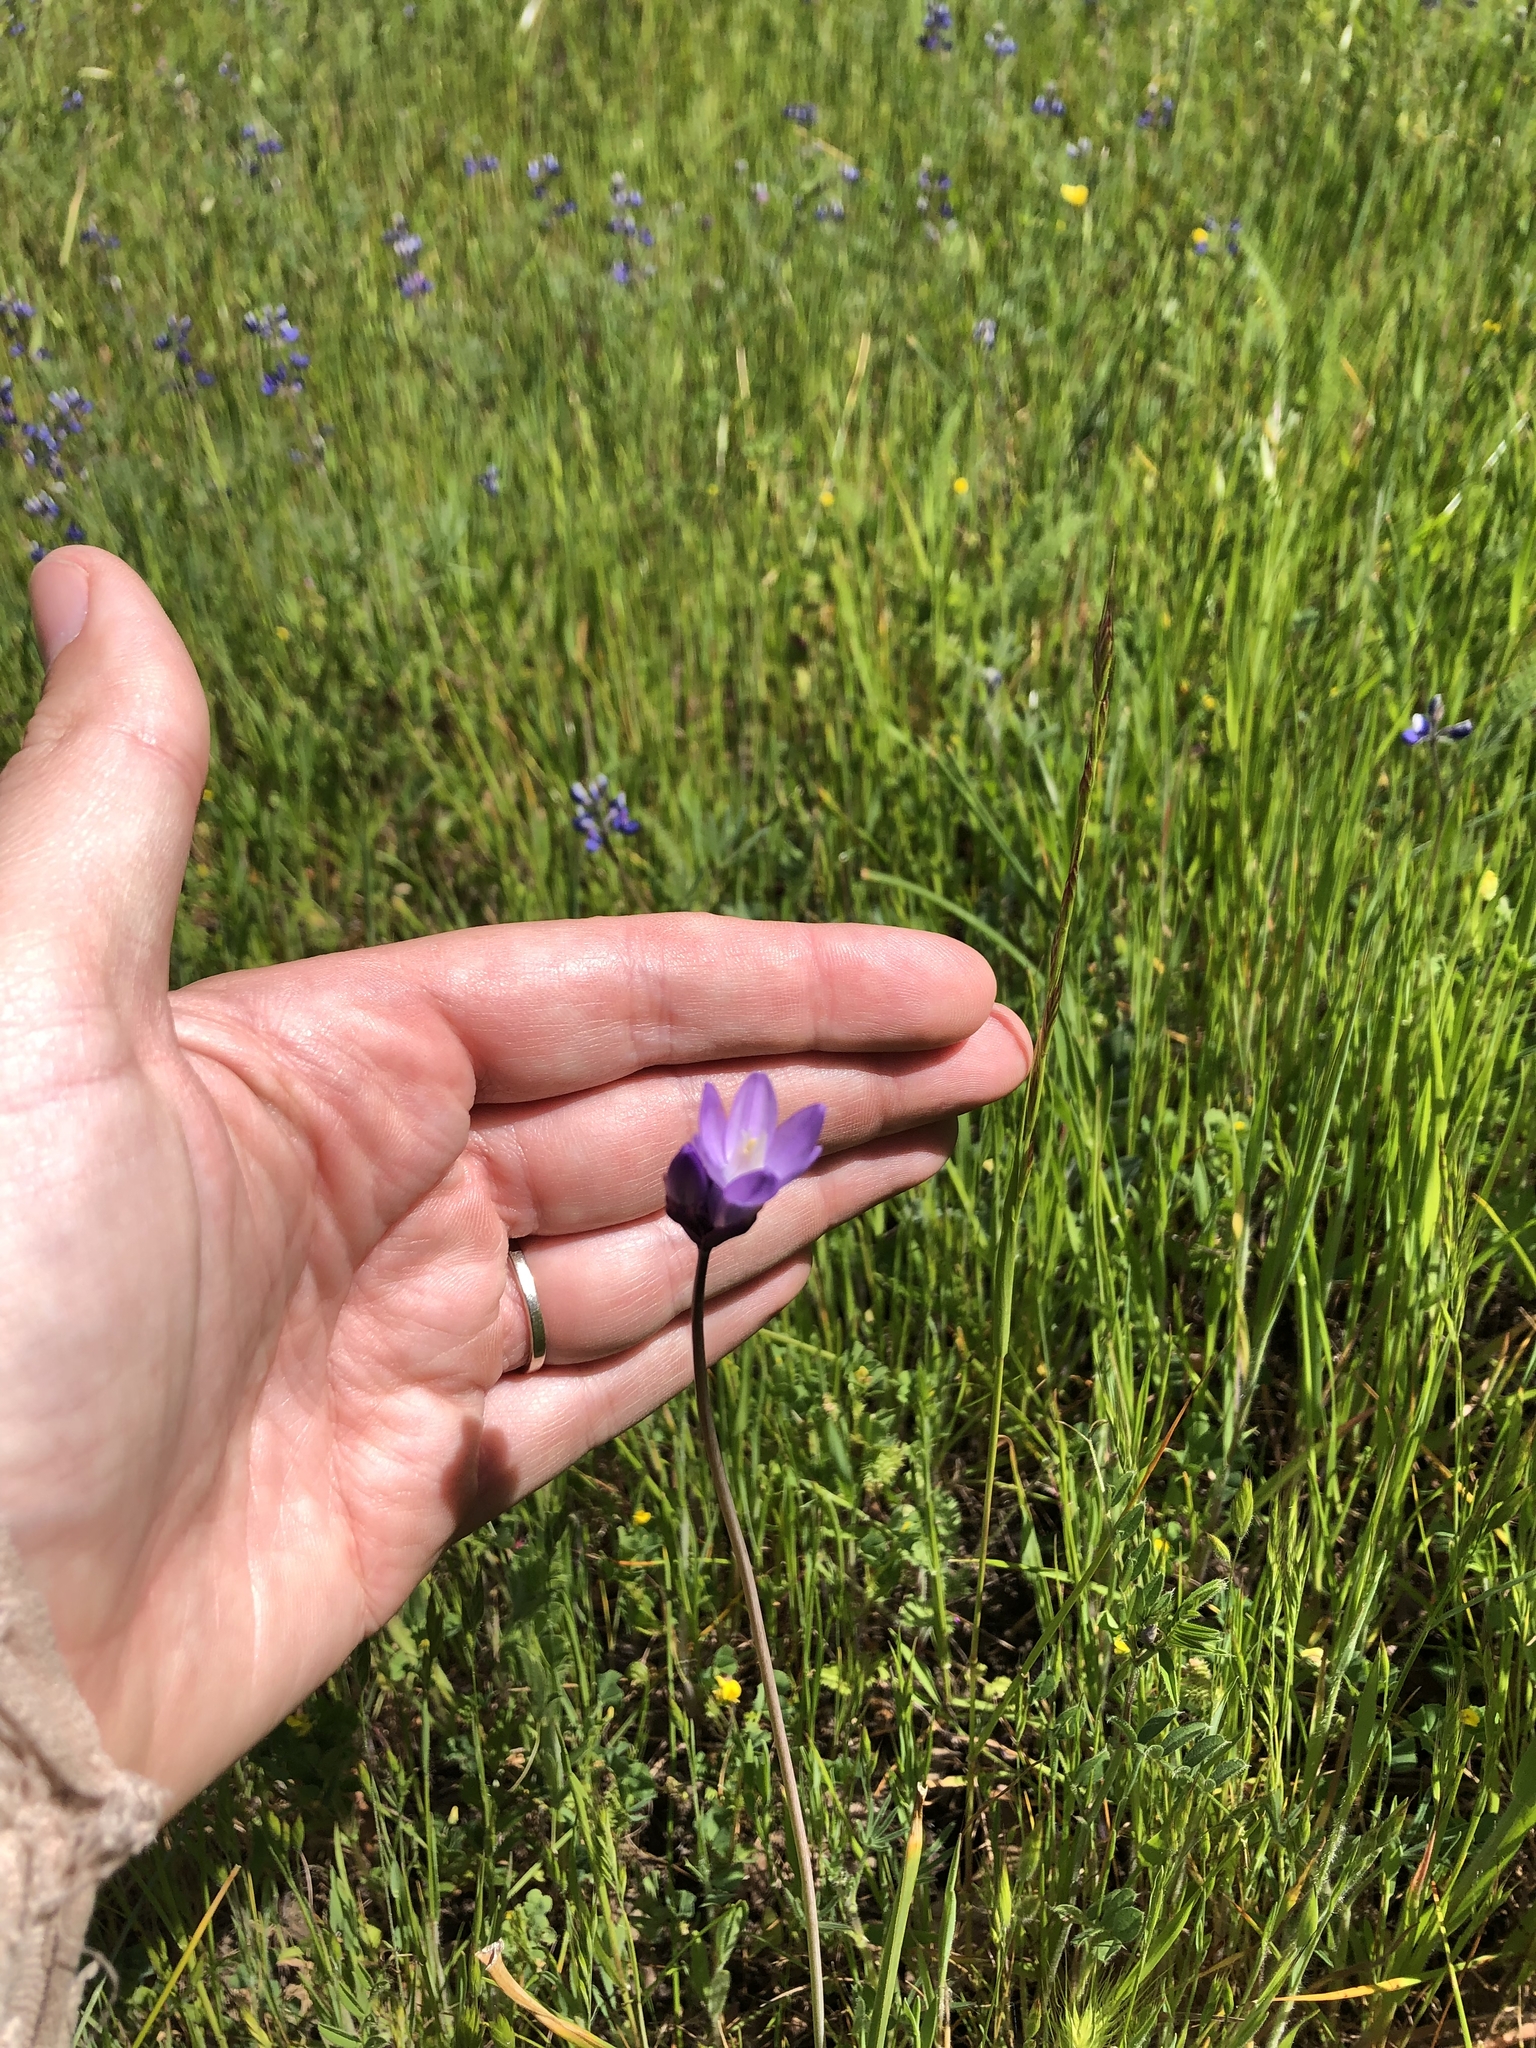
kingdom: Plantae
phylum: Tracheophyta
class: Liliopsida
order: Asparagales
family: Asparagaceae
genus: Dipterostemon
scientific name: Dipterostemon capitatus
